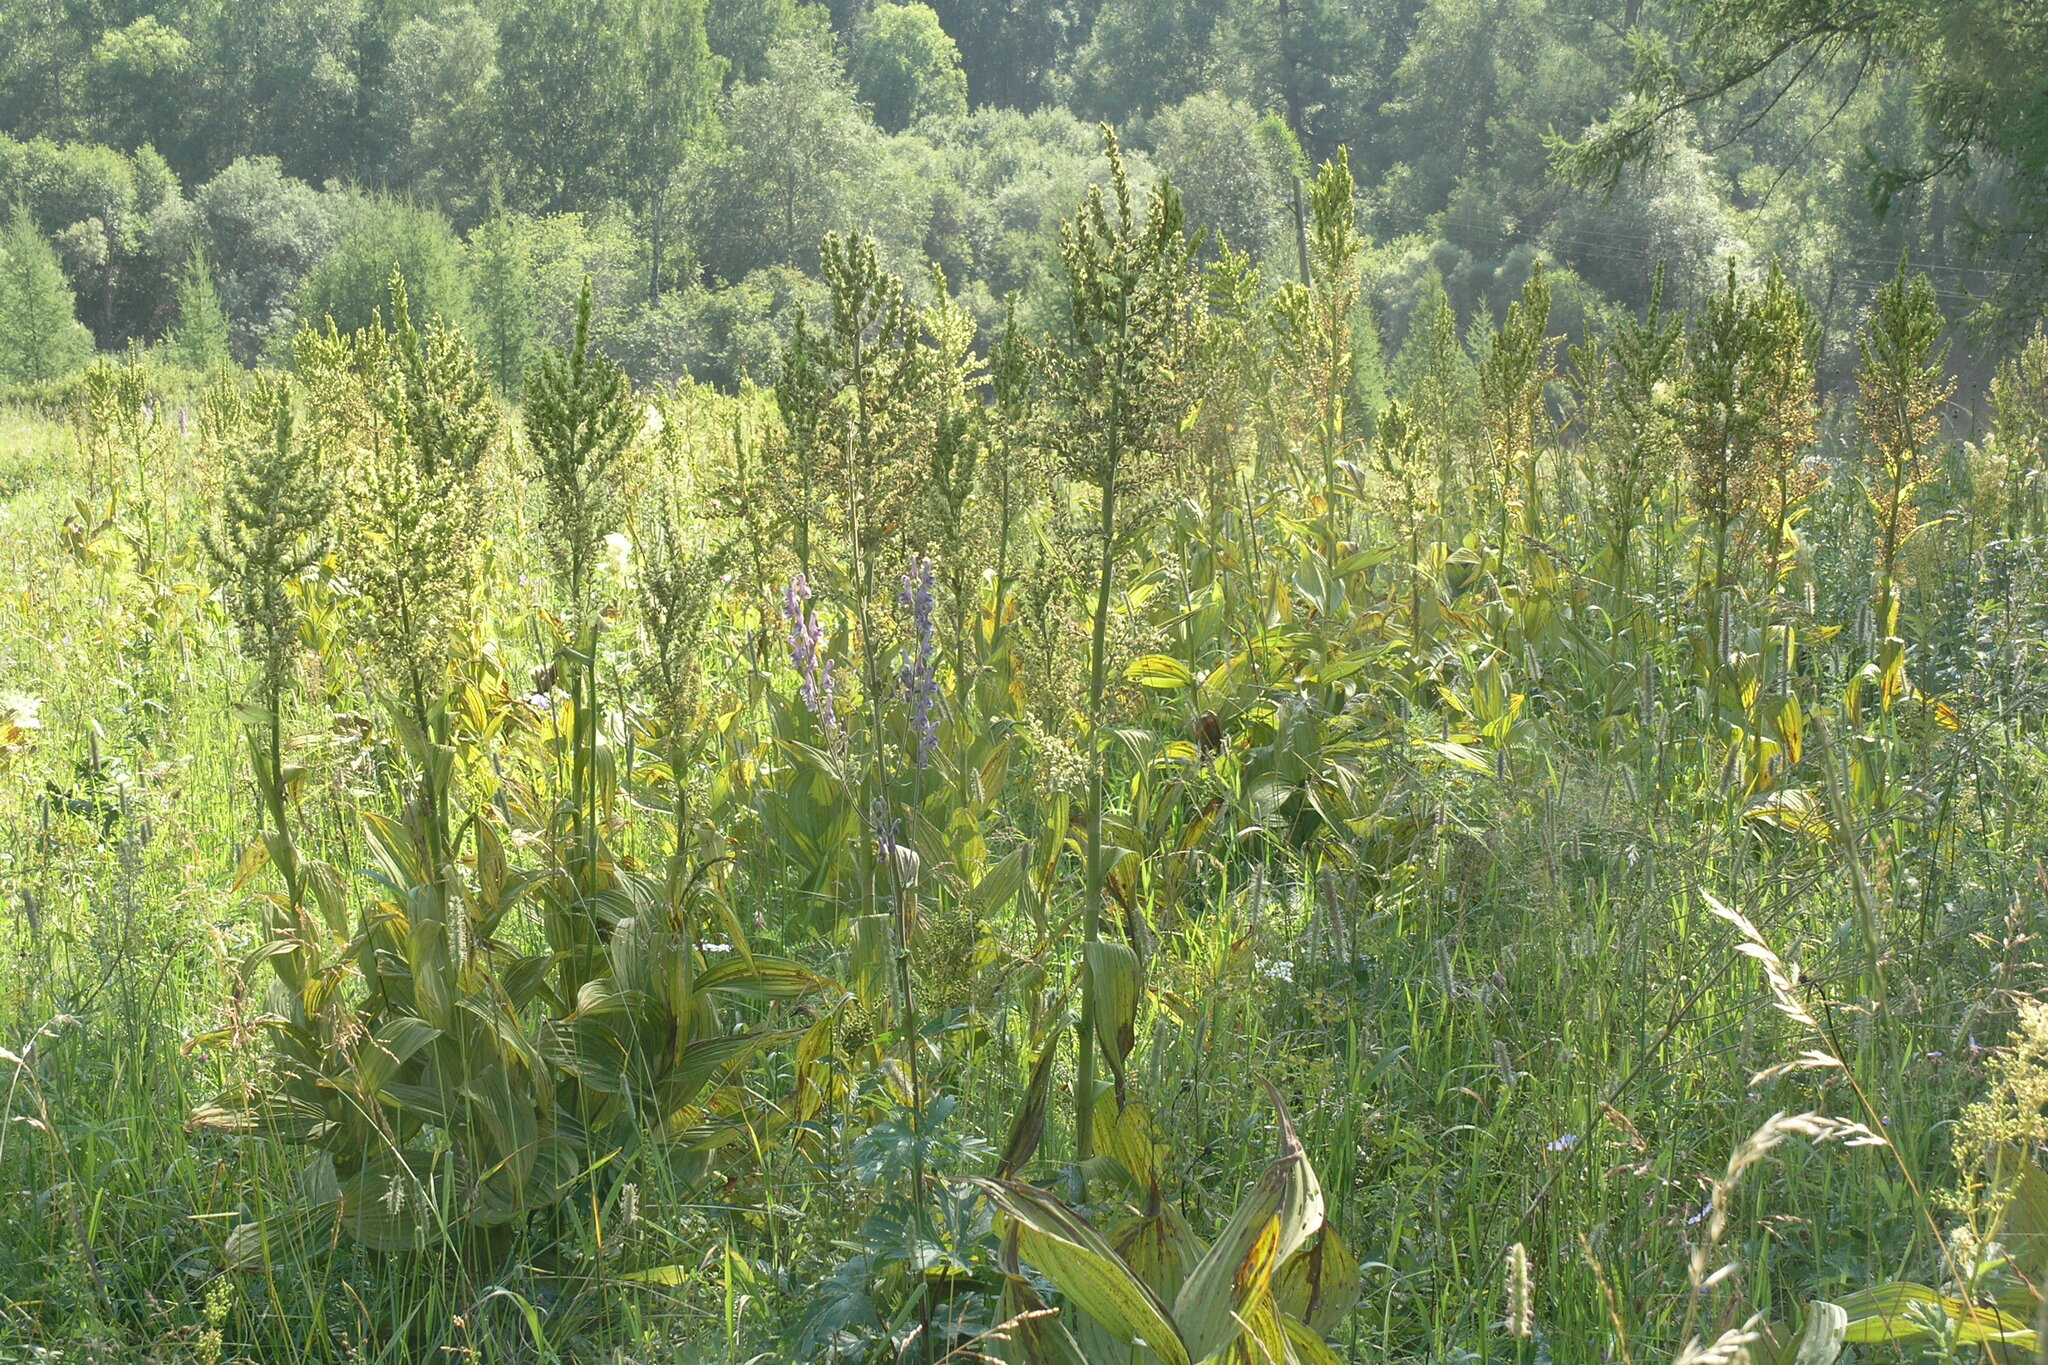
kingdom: Plantae
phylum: Tracheophyta
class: Liliopsida
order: Liliales
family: Melanthiaceae
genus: Veratrum
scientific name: Veratrum lobelianum
